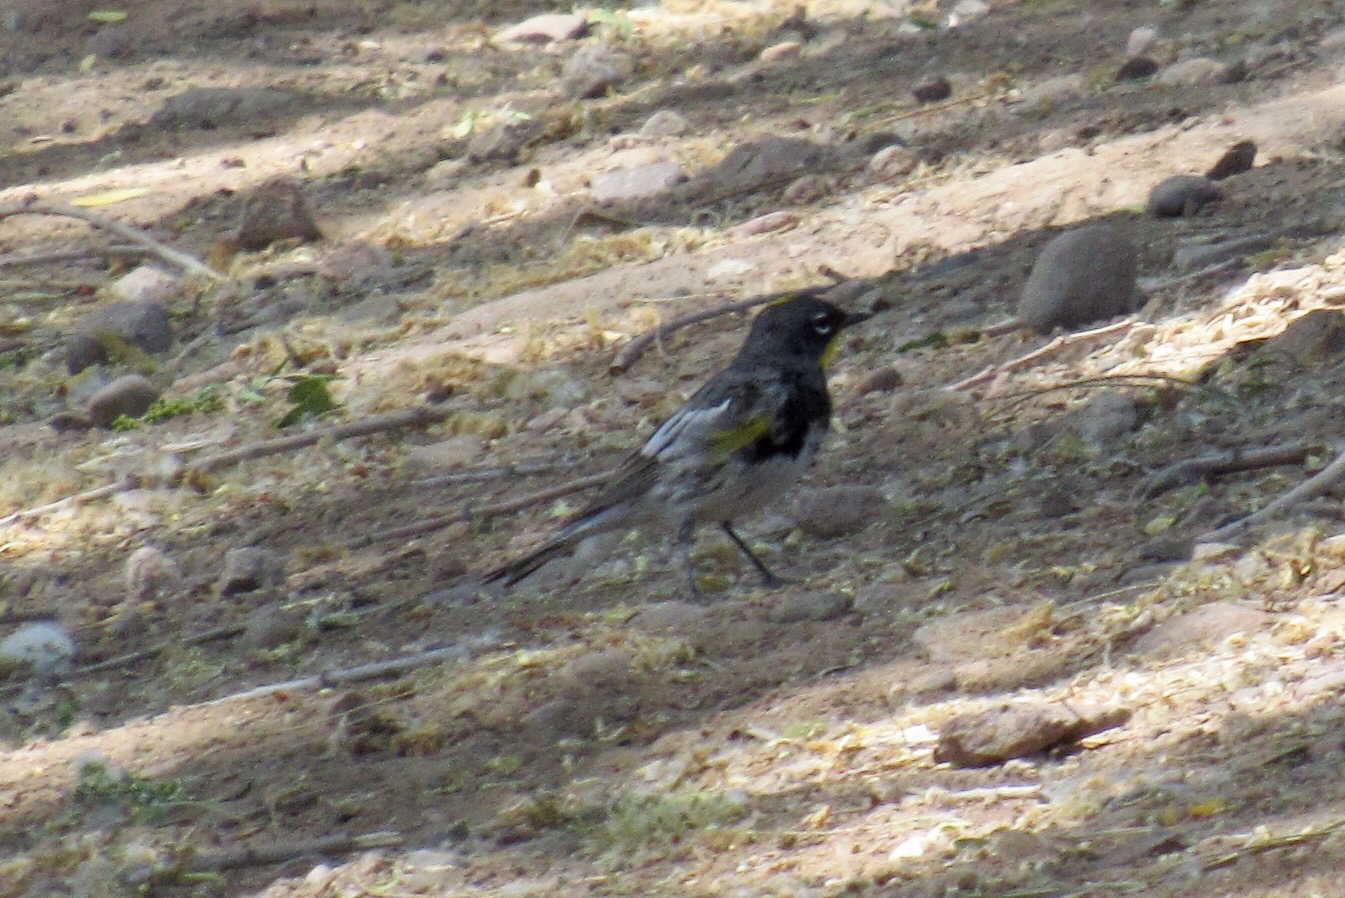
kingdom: Animalia
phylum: Chordata
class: Aves
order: Passeriformes
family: Parulidae
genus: Setophaga
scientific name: Setophaga auduboni
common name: Audubon's warbler
